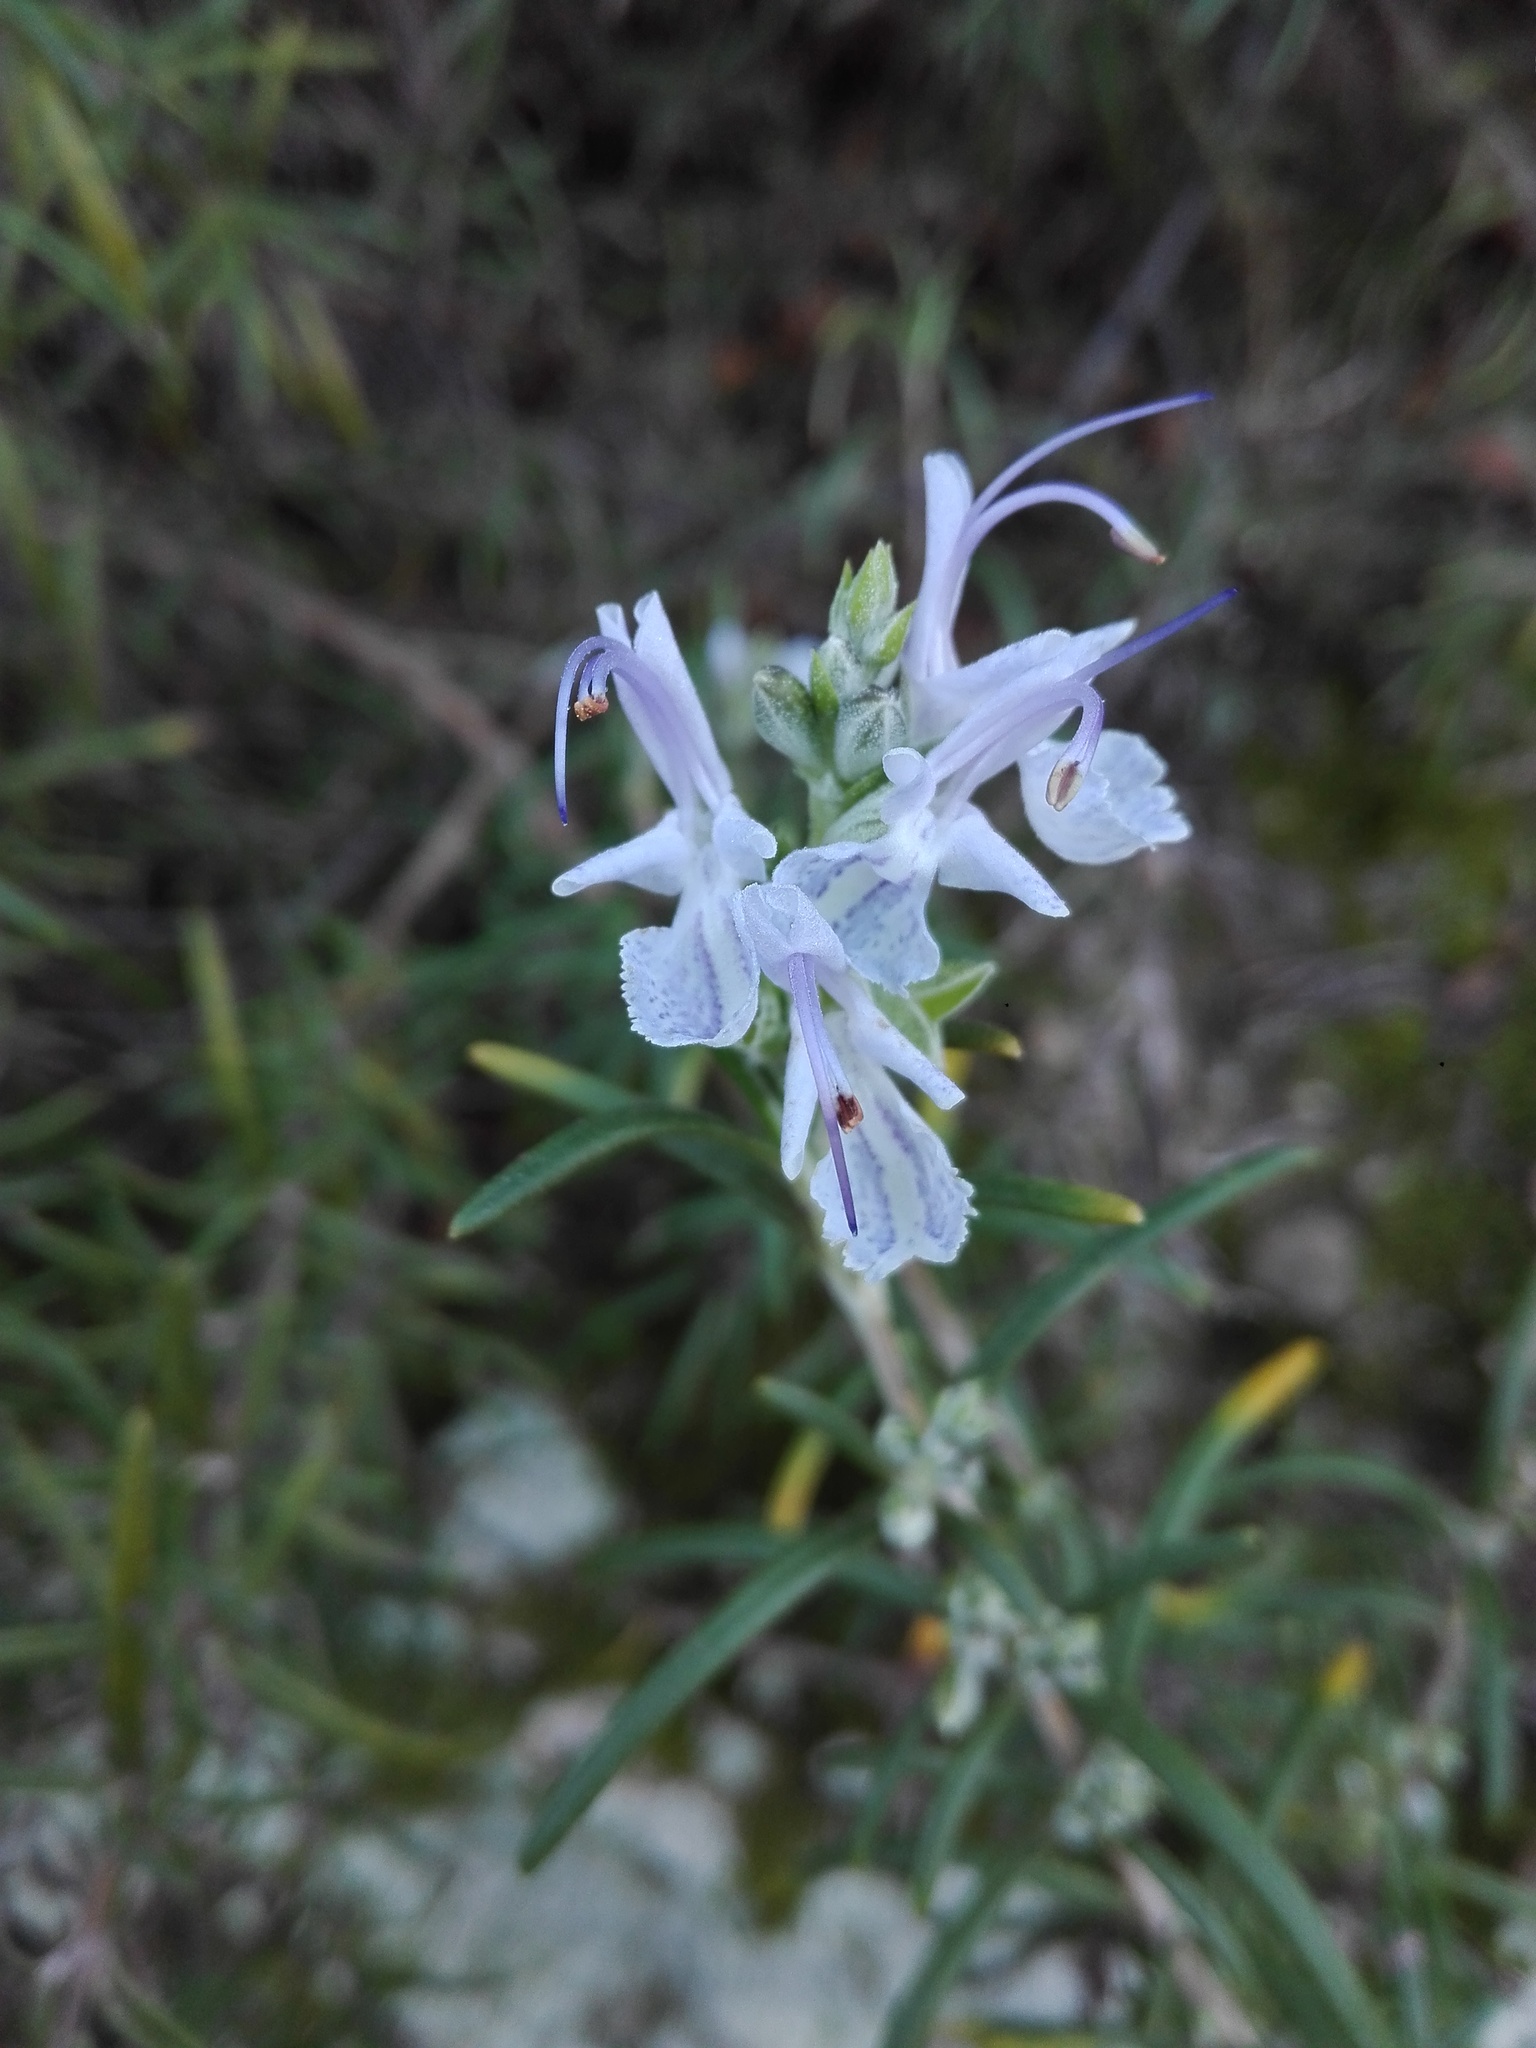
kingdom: Plantae
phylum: Tracheophyta
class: Magnoliopsida
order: Lamiales
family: Lamiaceae
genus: Salvia
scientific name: Salvia rosmarinus
